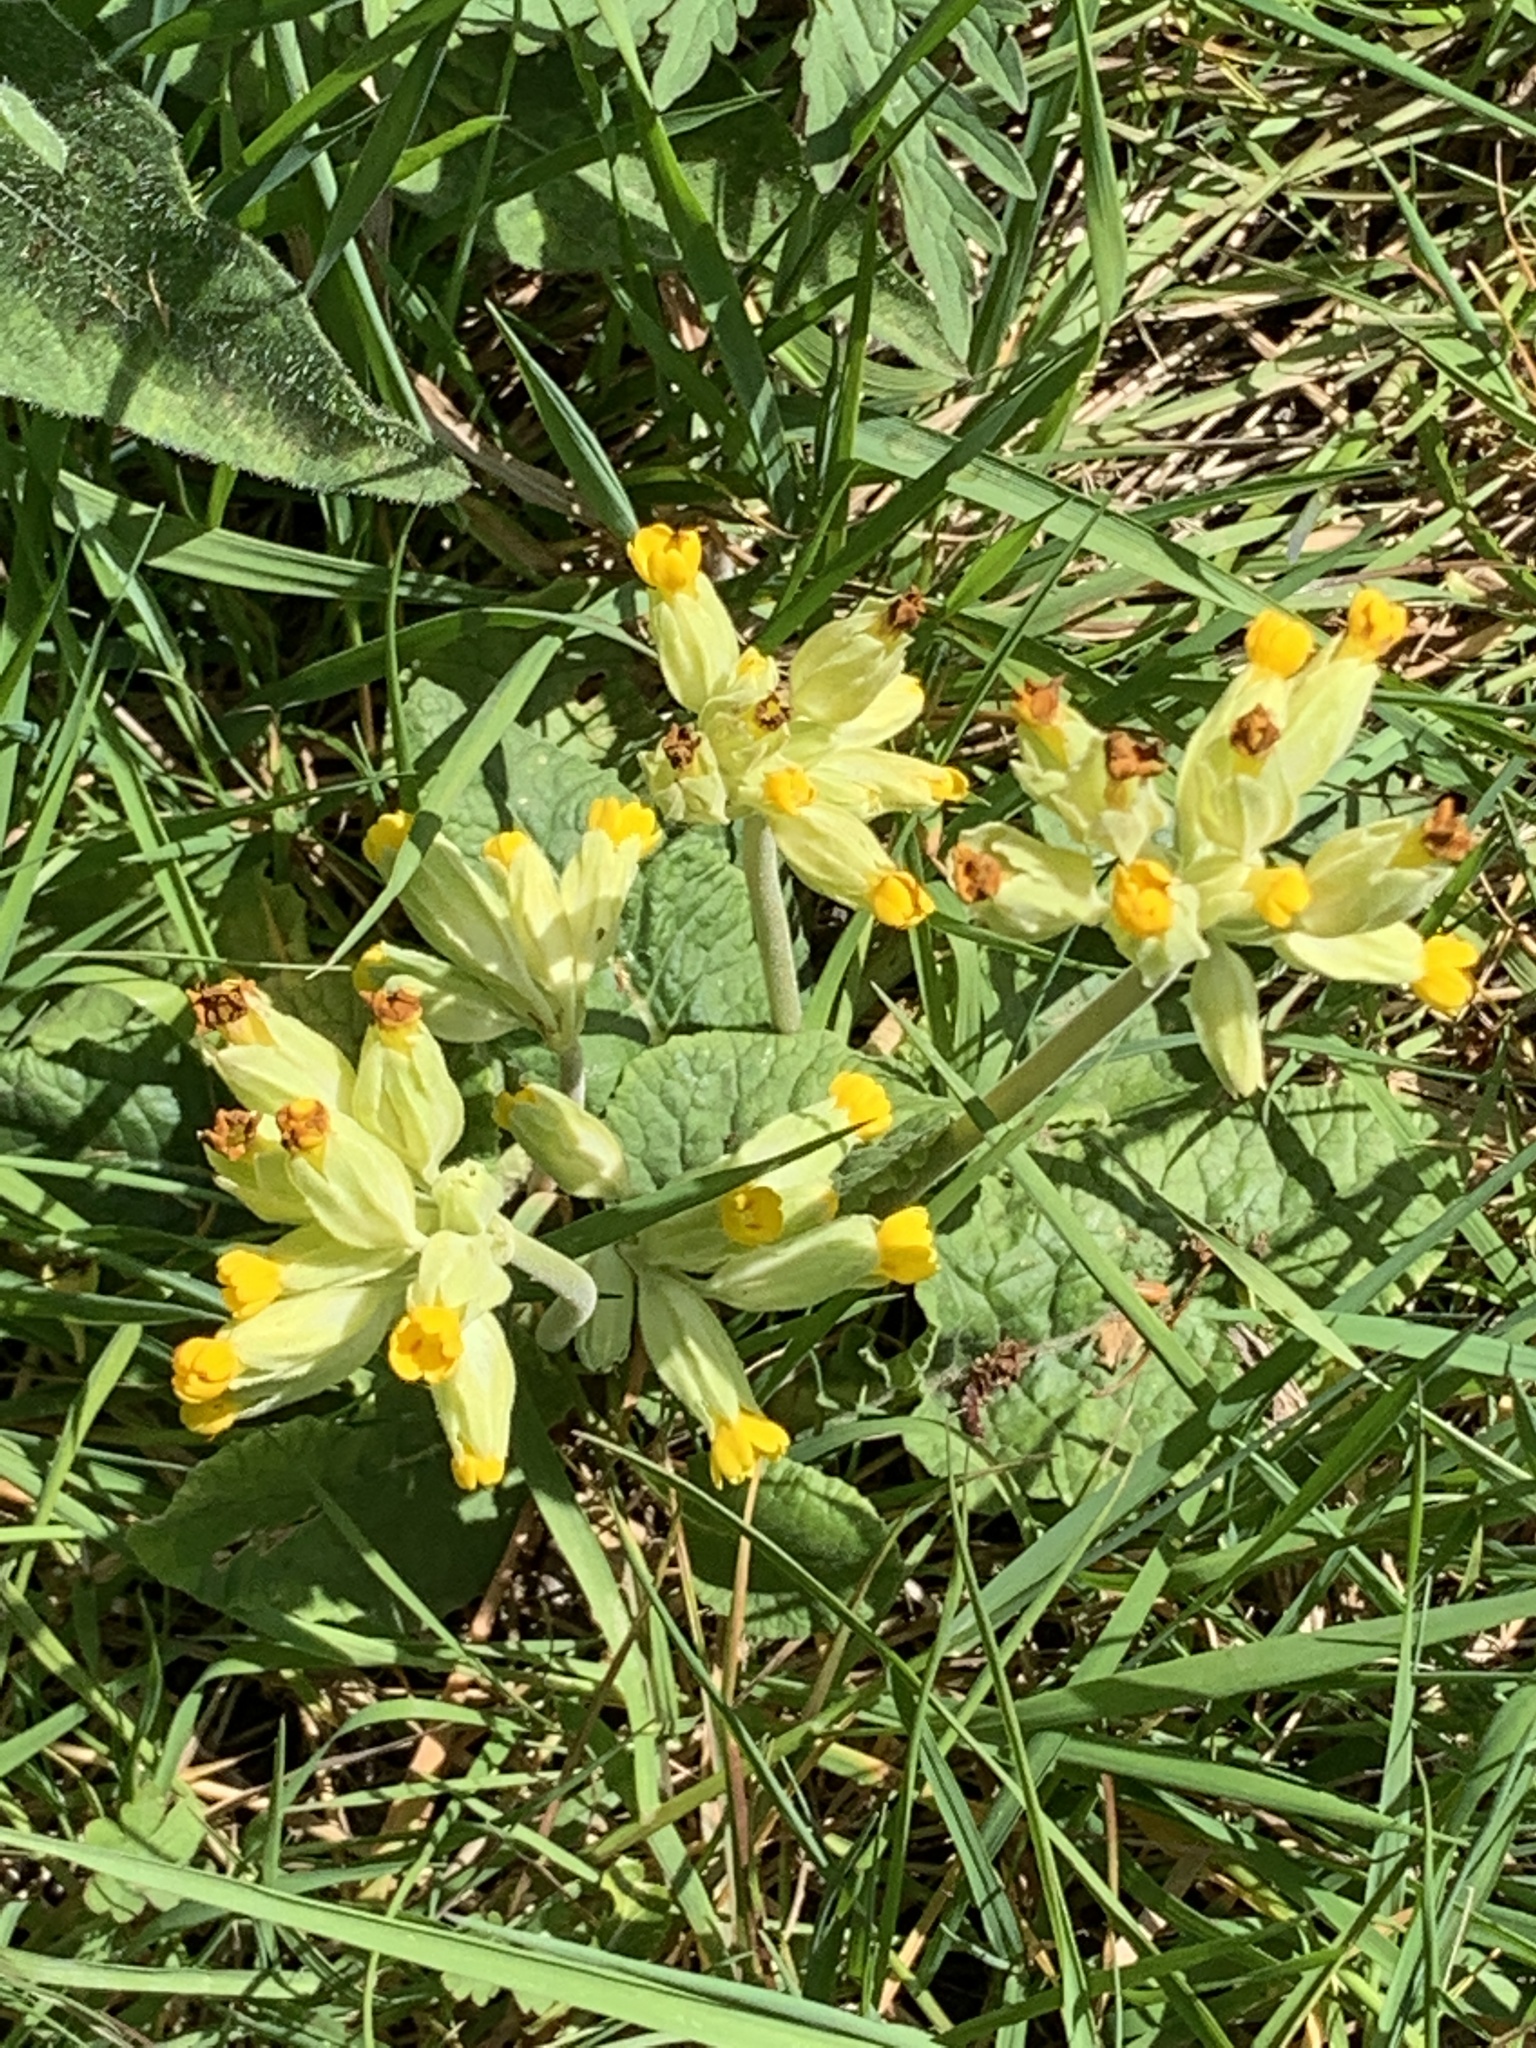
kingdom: Plantae
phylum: Tracheophyta
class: Magnoliopsida
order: Ericales
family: Primulaceae
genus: Primula
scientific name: Primula veris
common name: Cowslip
